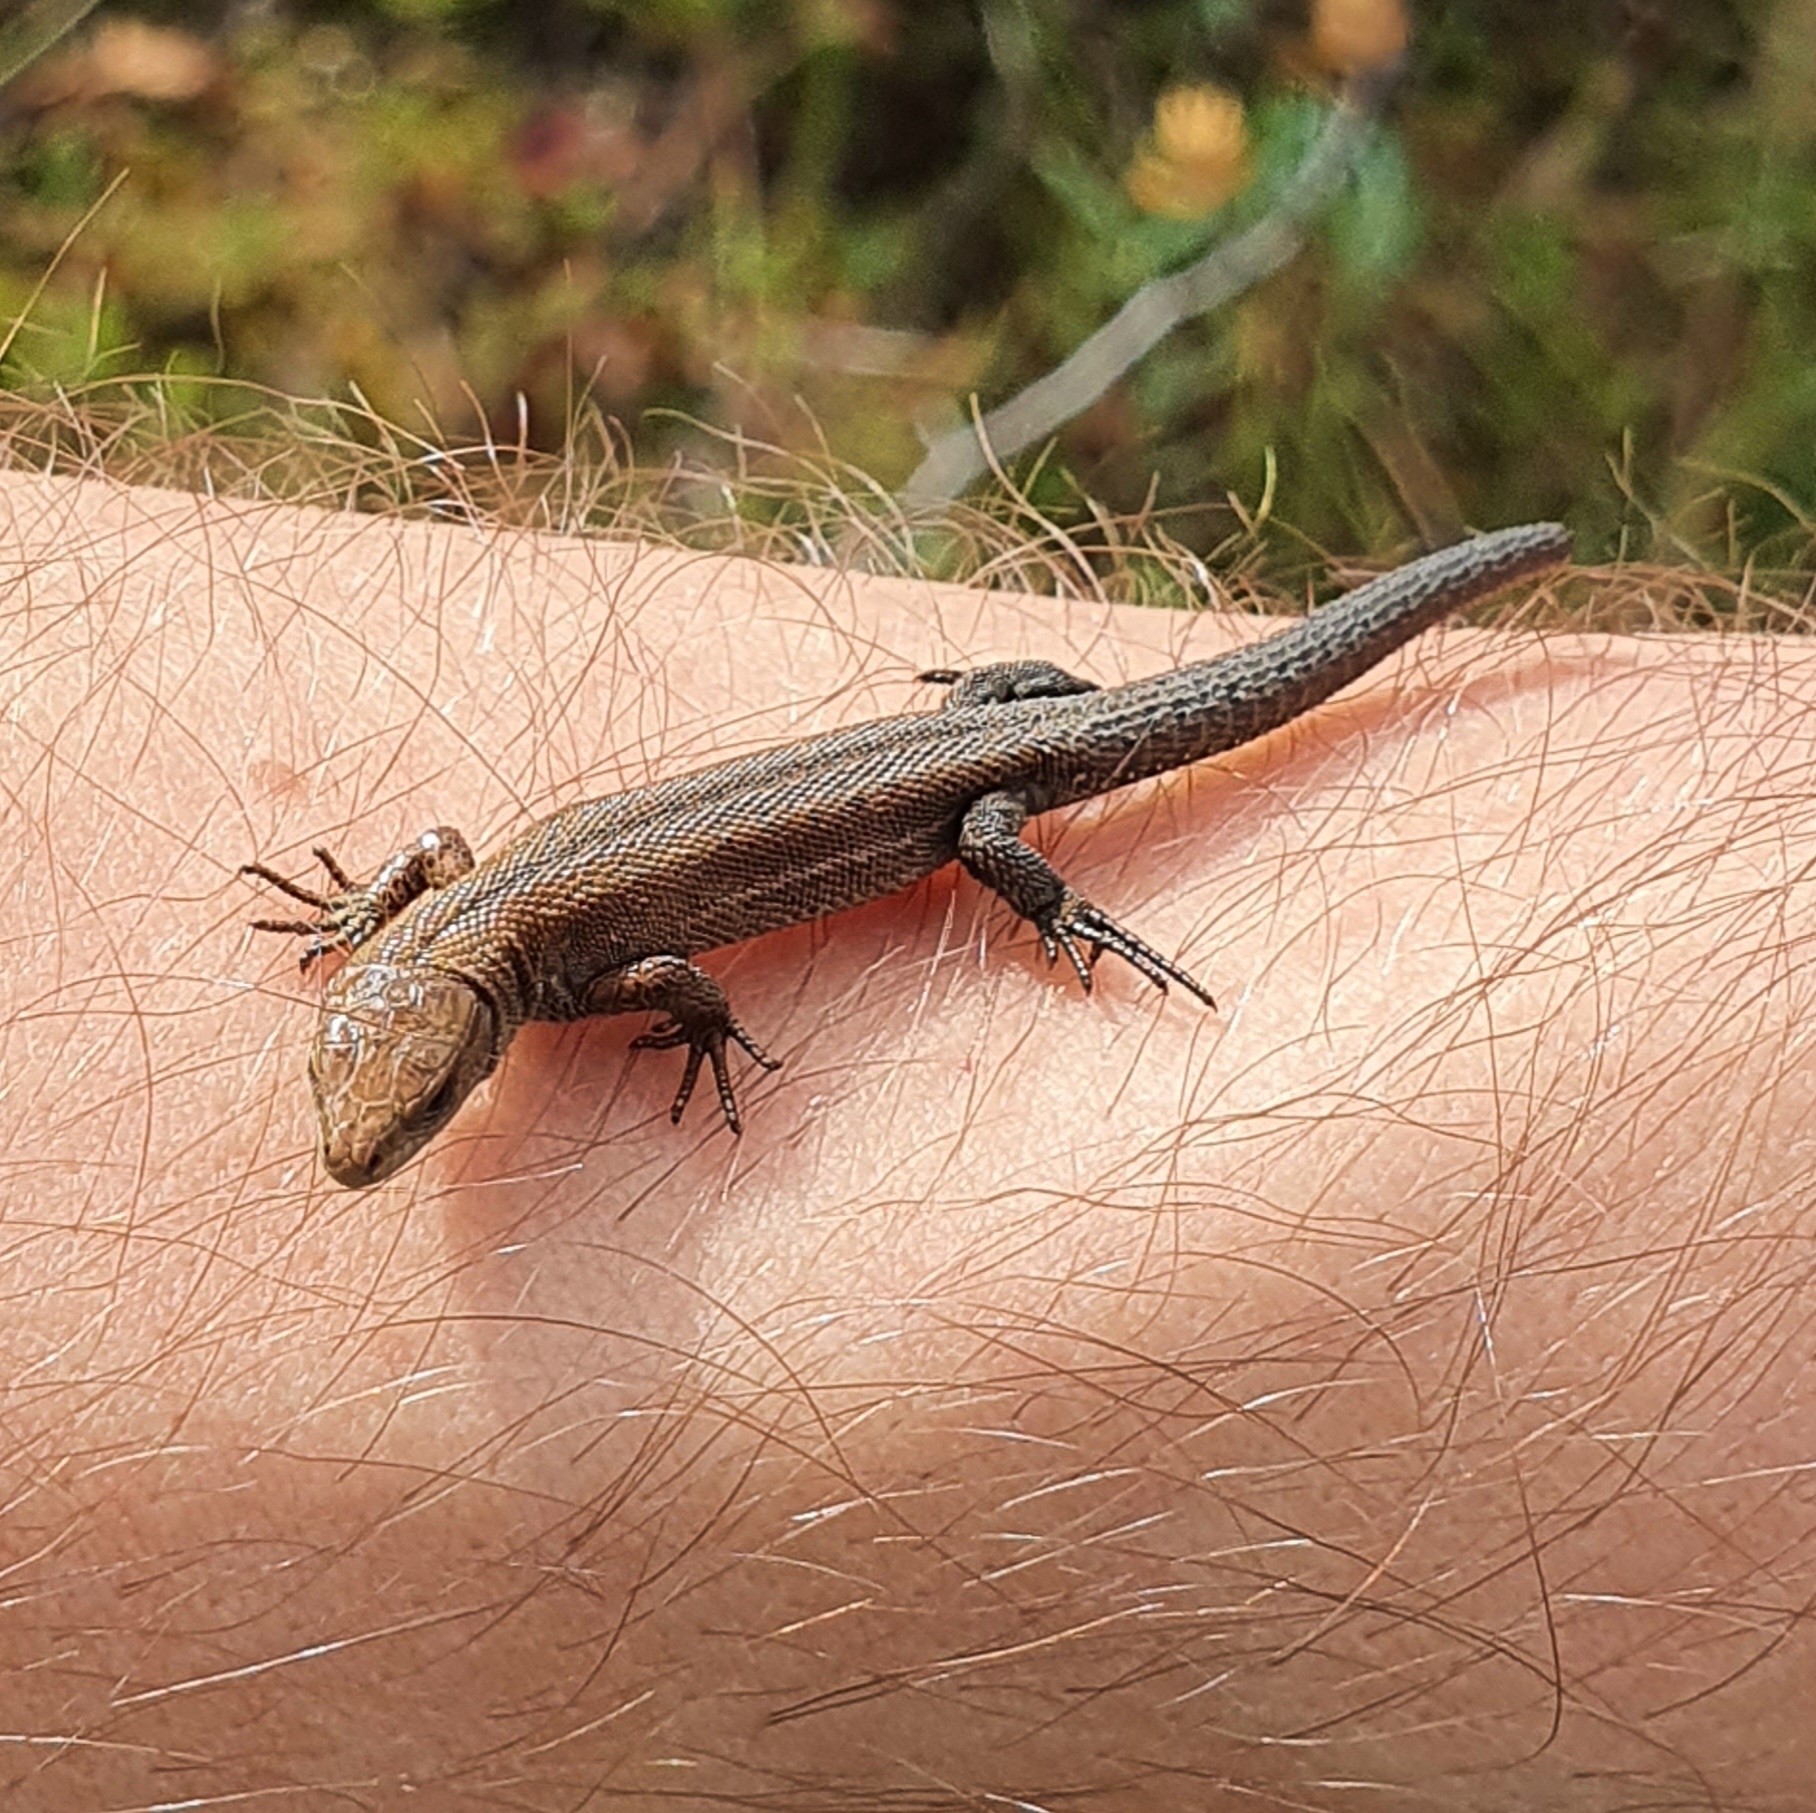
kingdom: Animalia
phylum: Chordata
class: Squamata
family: Lacertidae
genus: Zootoca
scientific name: Zootoca vivipara
